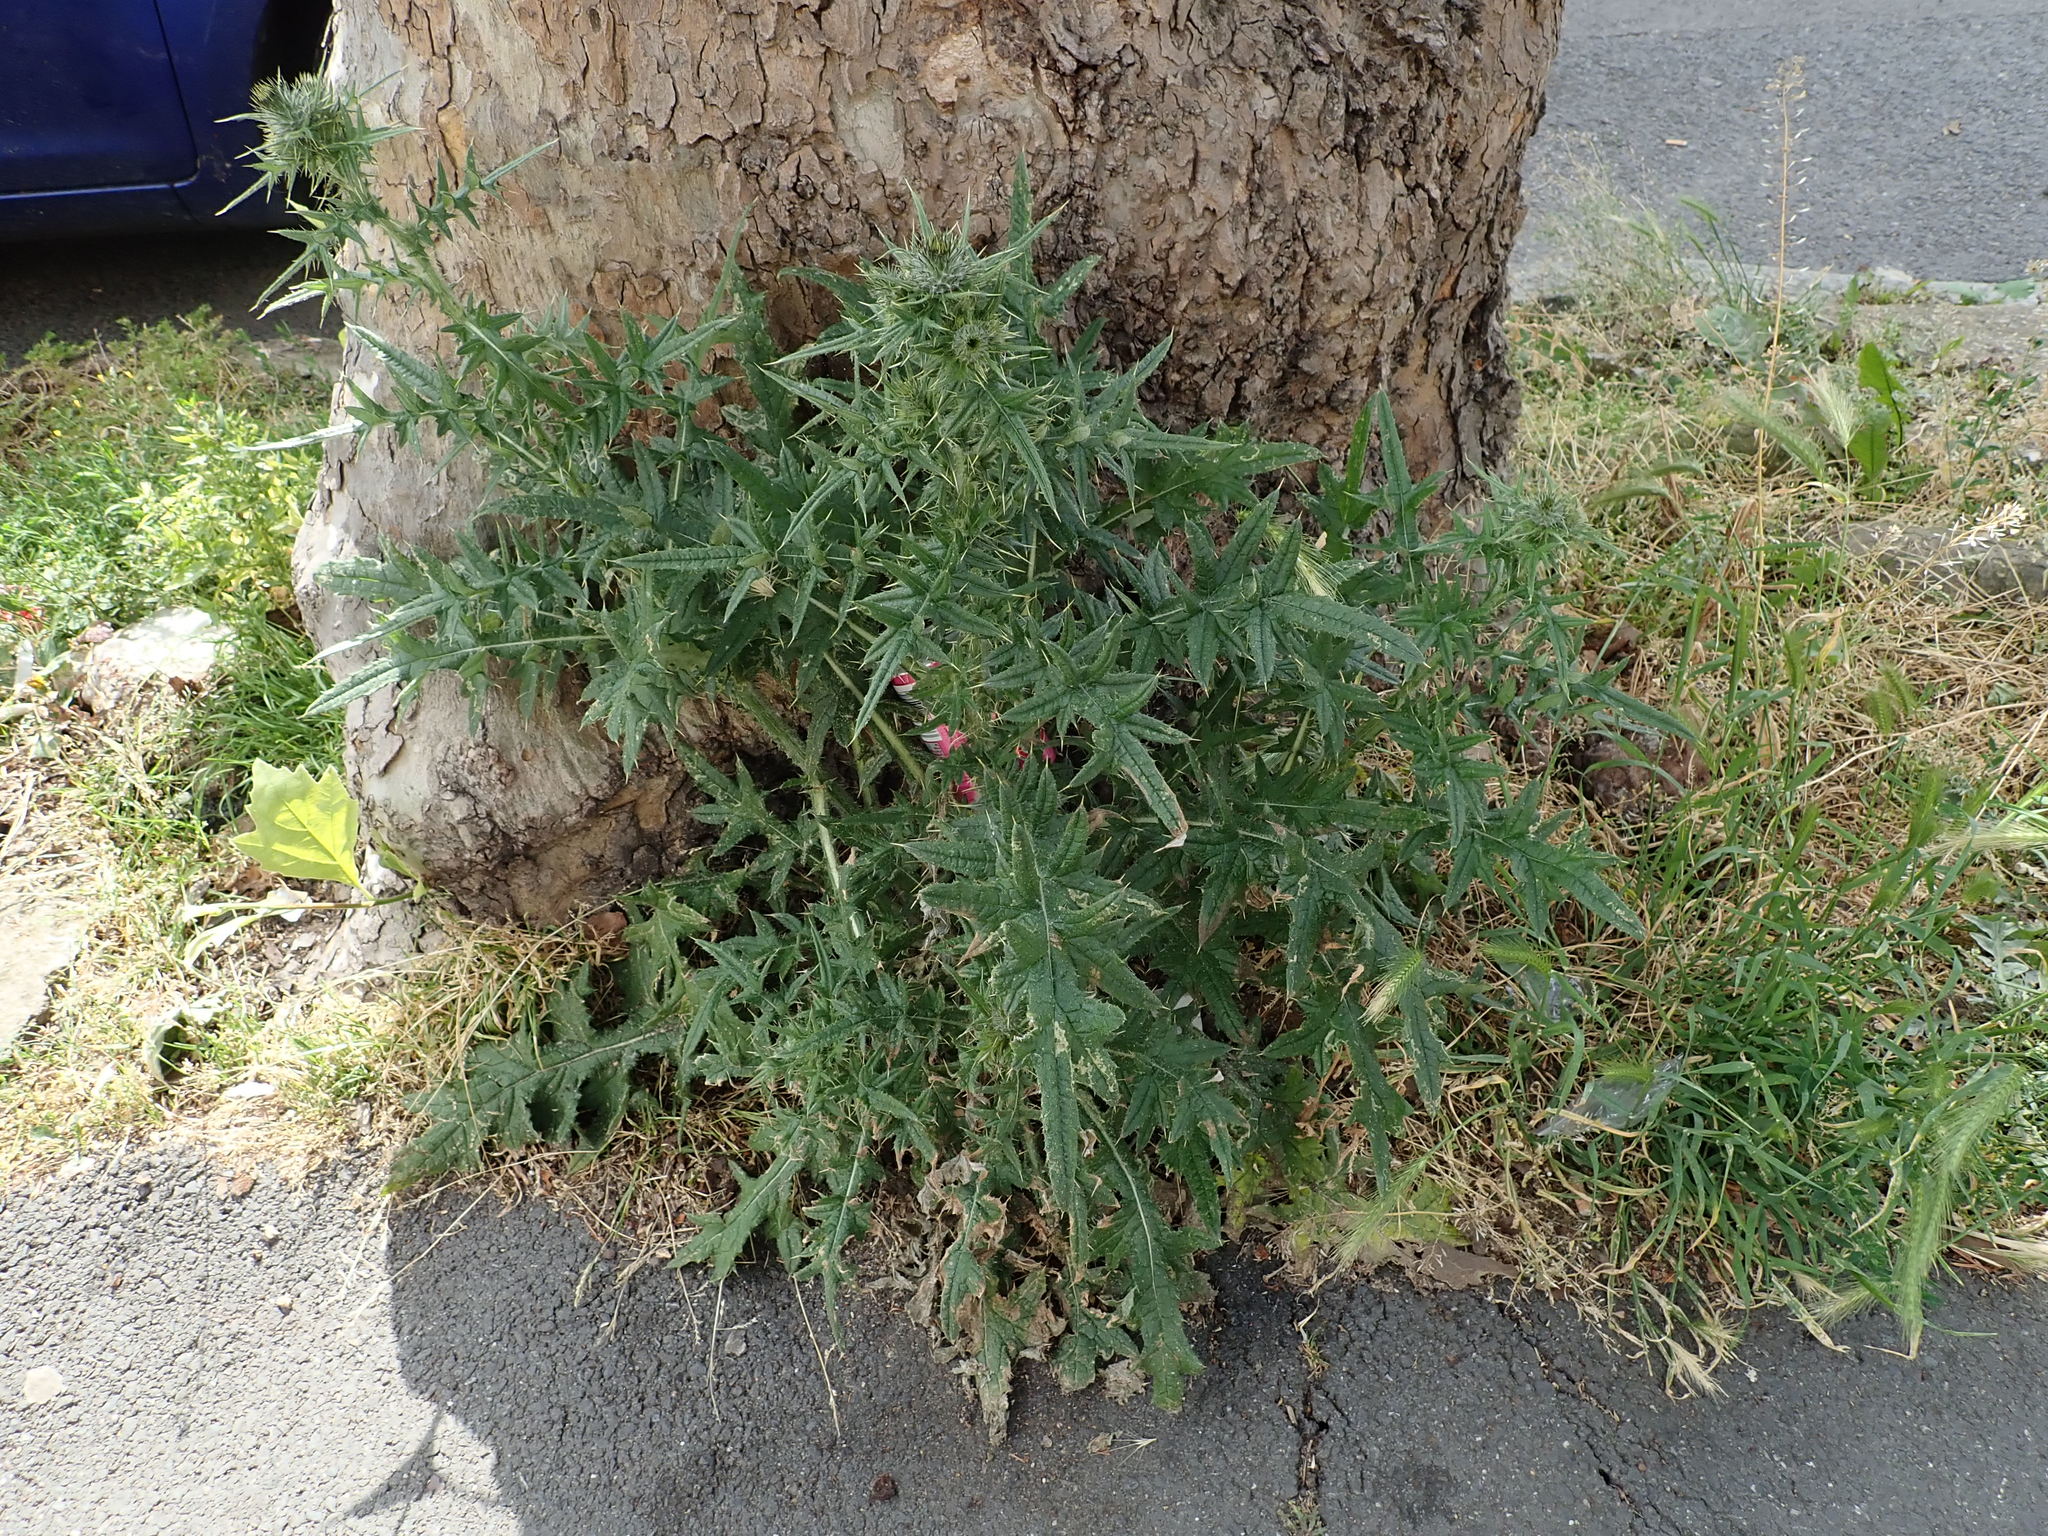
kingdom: Plantae
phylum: Tracheophyta
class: Magnoliopsida
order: Asterales
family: Asteraceae
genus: Cirsium
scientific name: Cirsium vulgare
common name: Bull thistle
